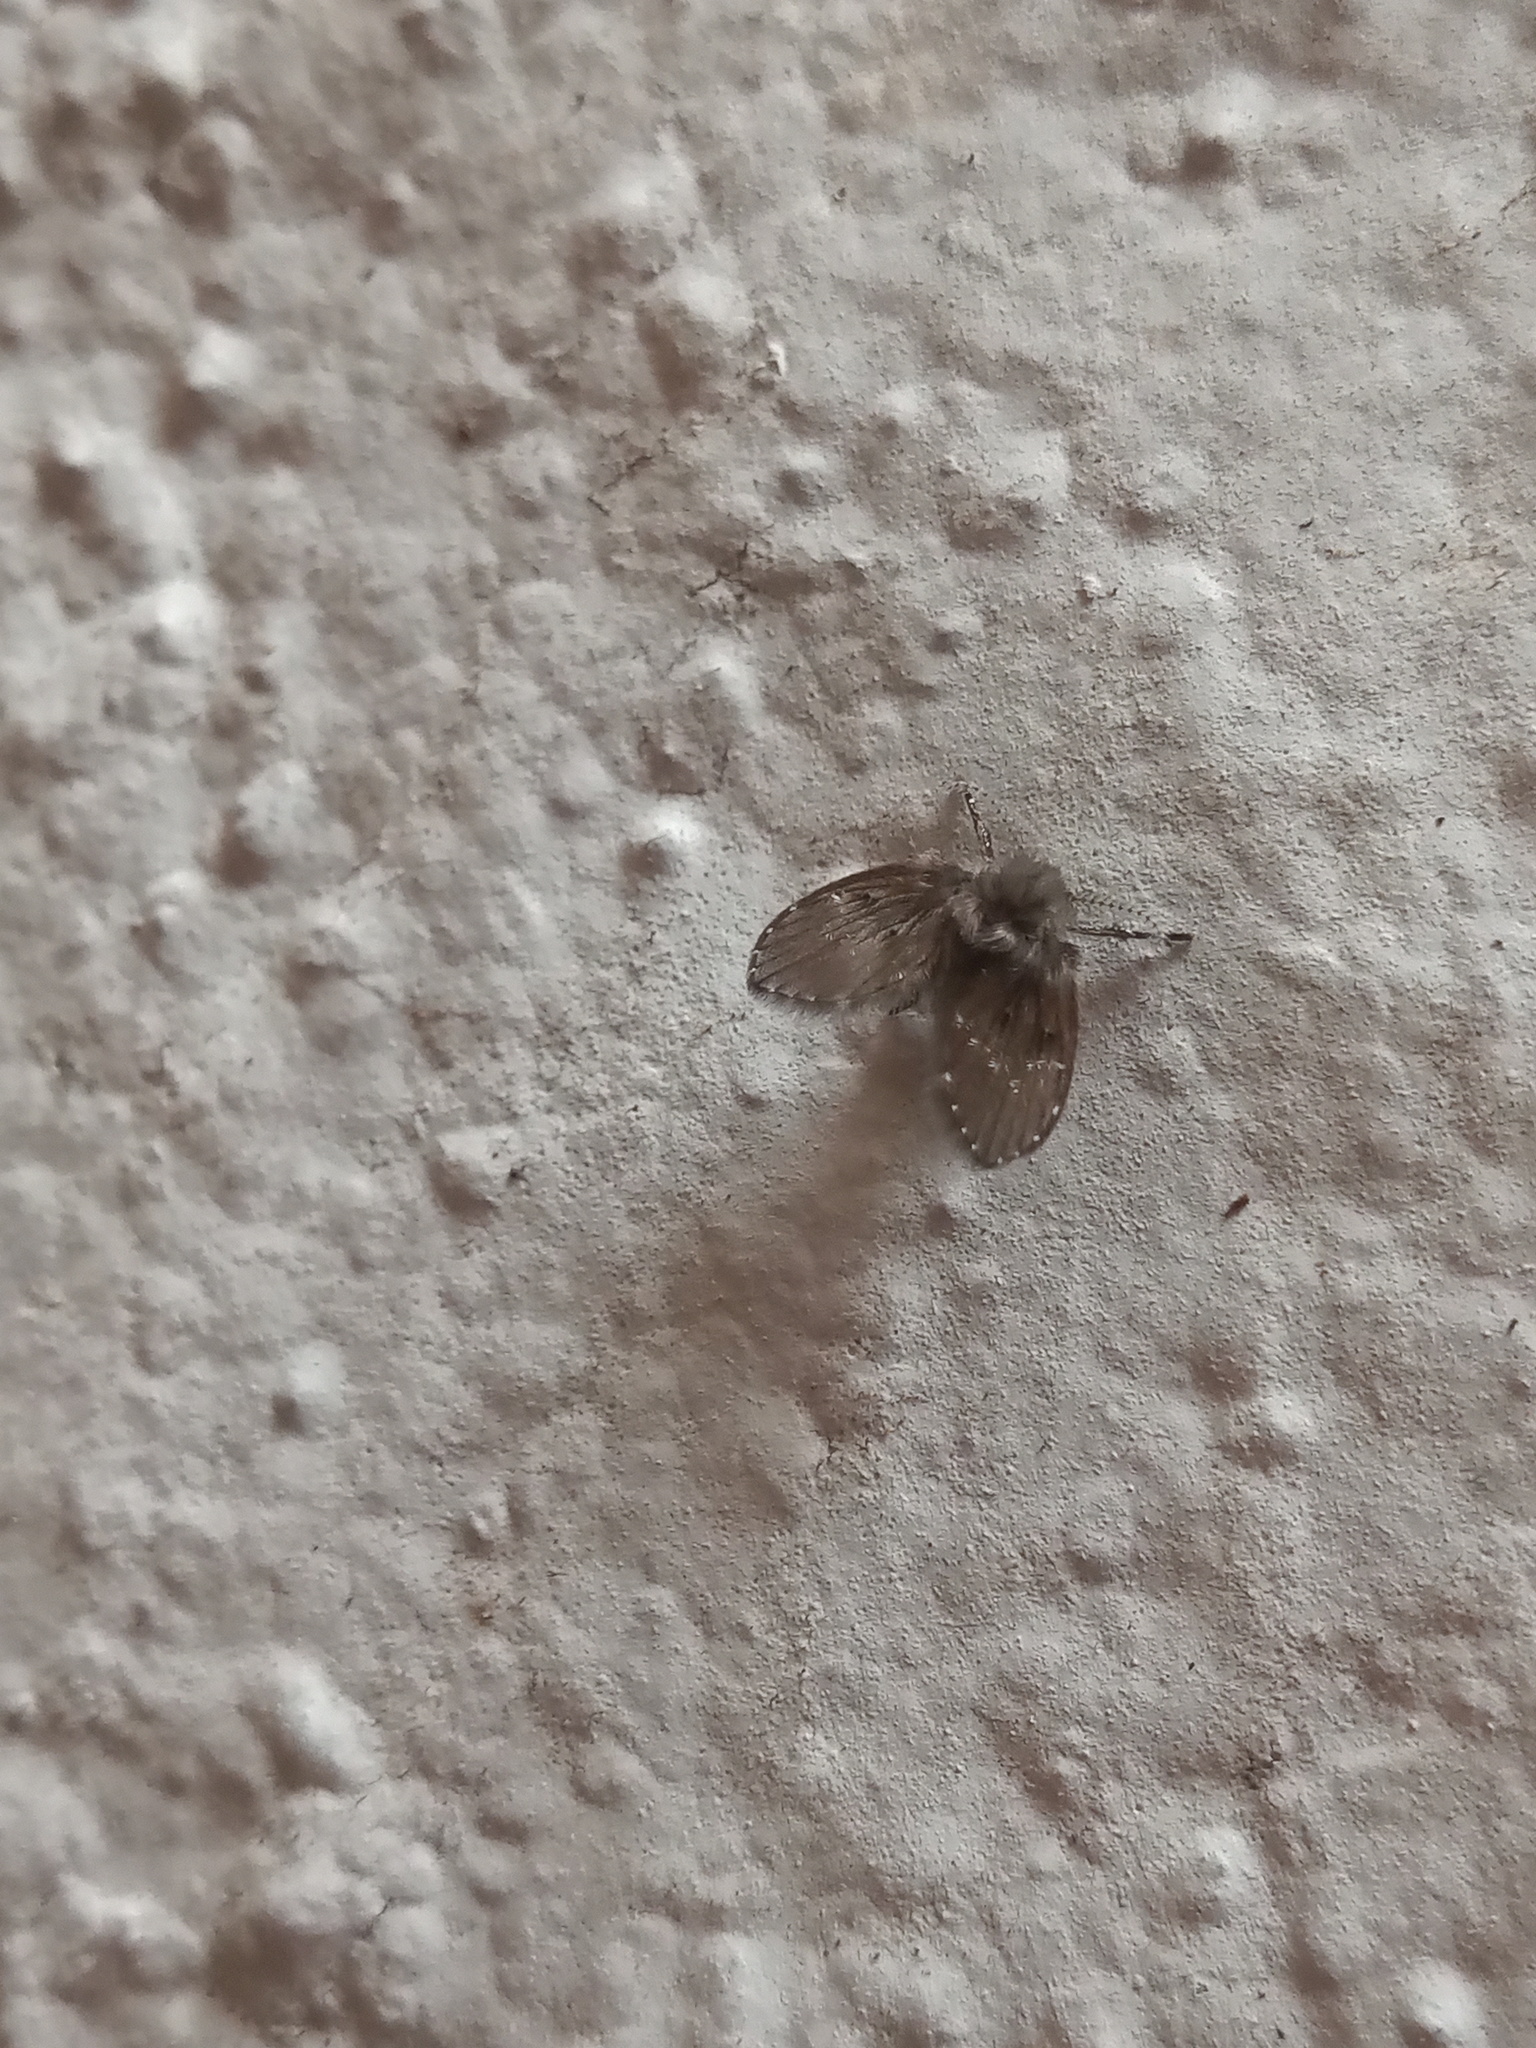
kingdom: Animalia
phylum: Arthropoda
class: Insecta
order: Diptera
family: Psychodidae
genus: Clogmia
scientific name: Clogmia albipunctatus
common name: White-spotted moth fly
